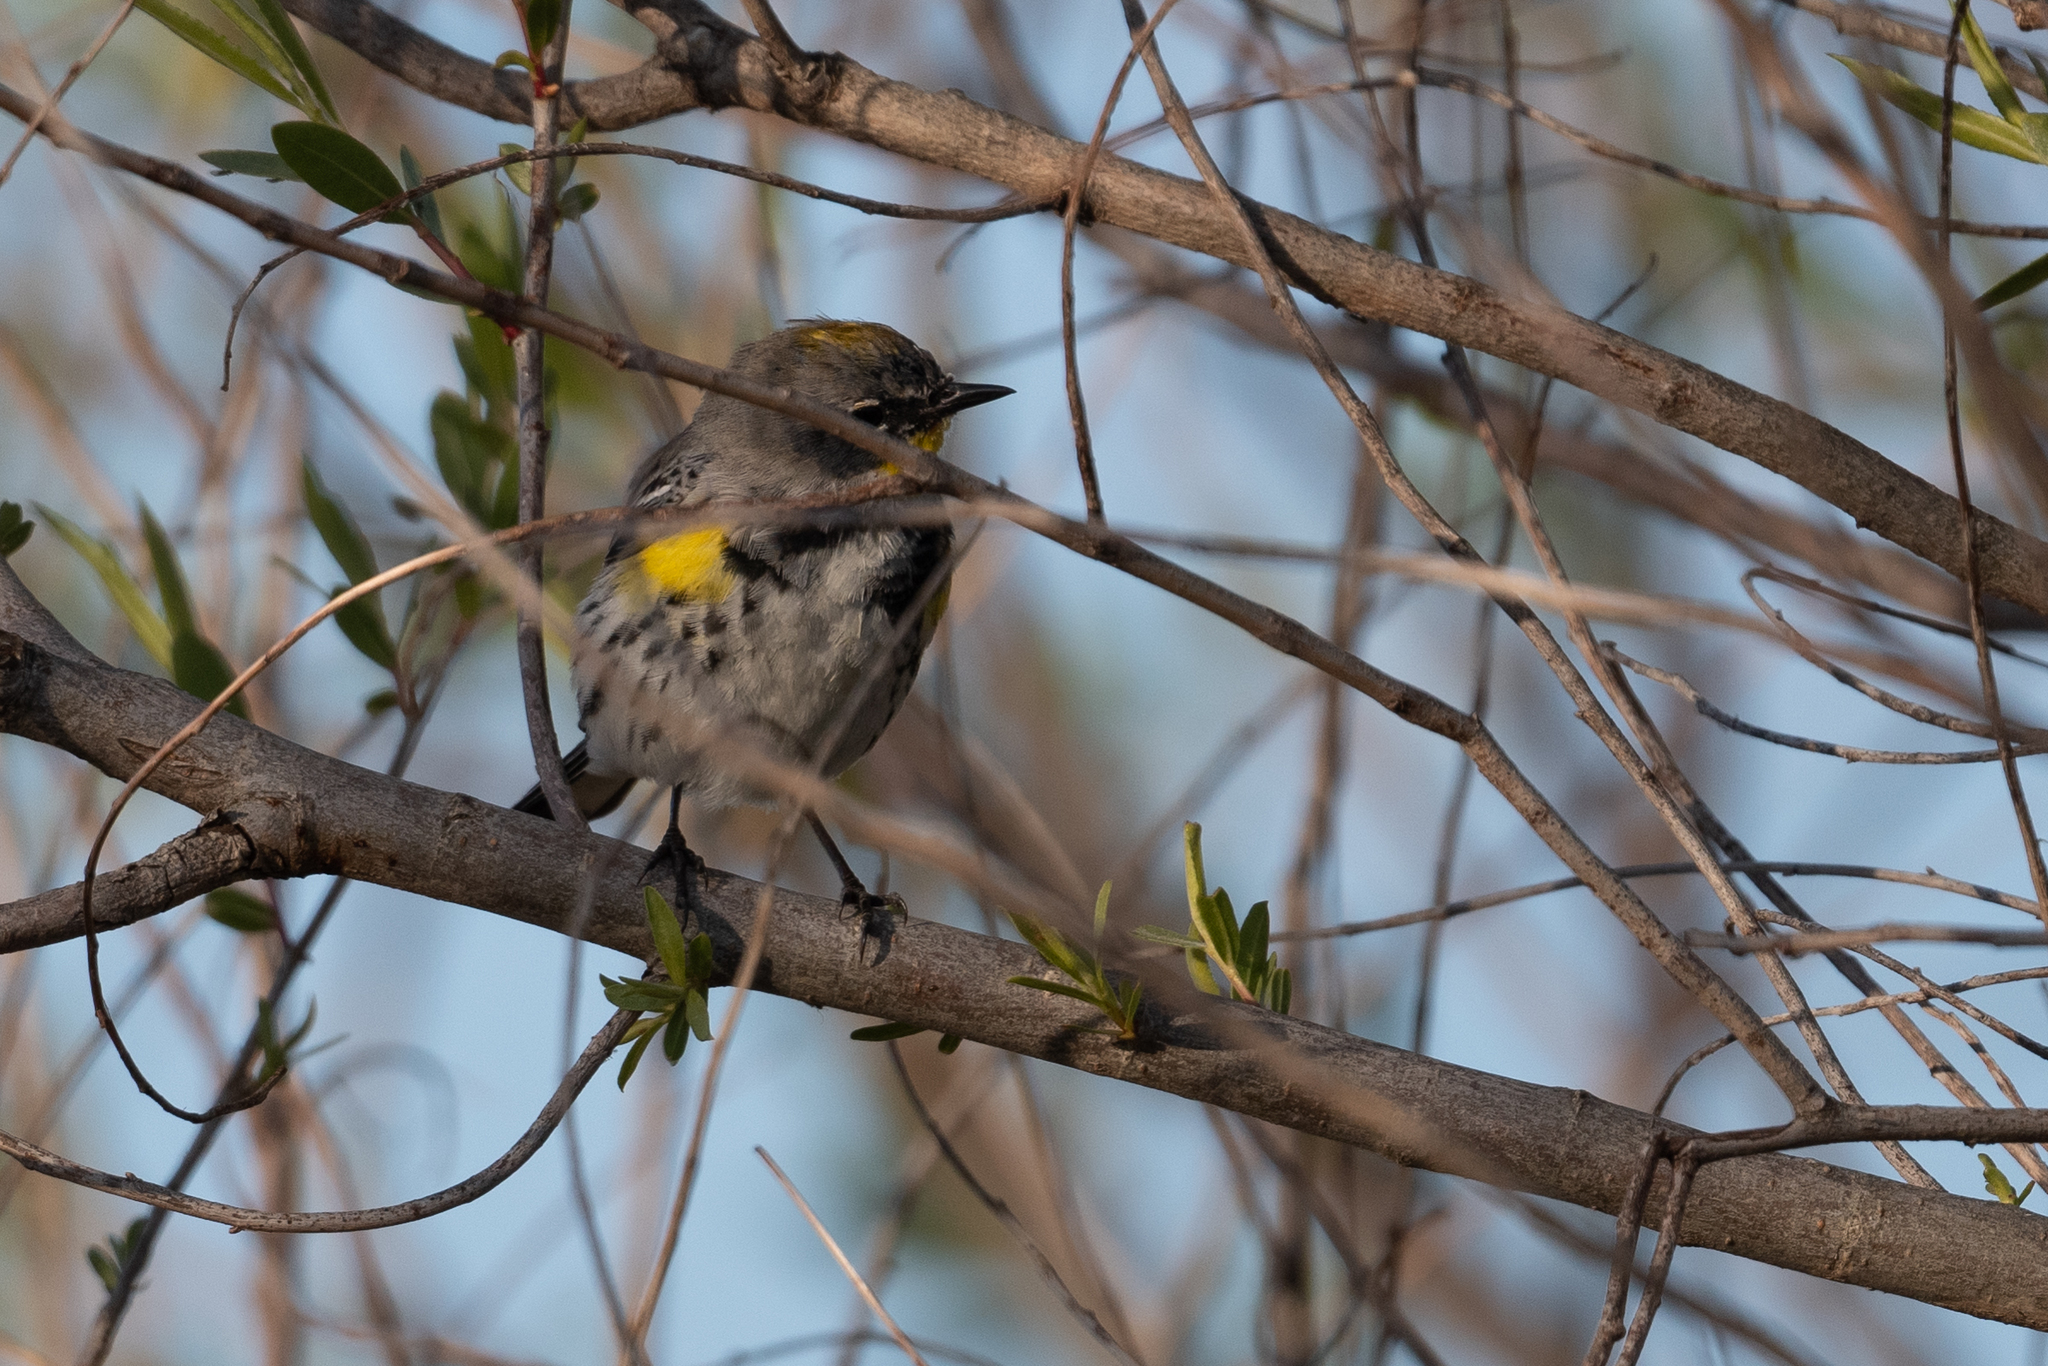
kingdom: Animalia
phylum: Chordata
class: Aves
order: Passeriformes
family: Parulidae
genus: Setophaga
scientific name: Setophaga auduboni
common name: Audubon's warbler
